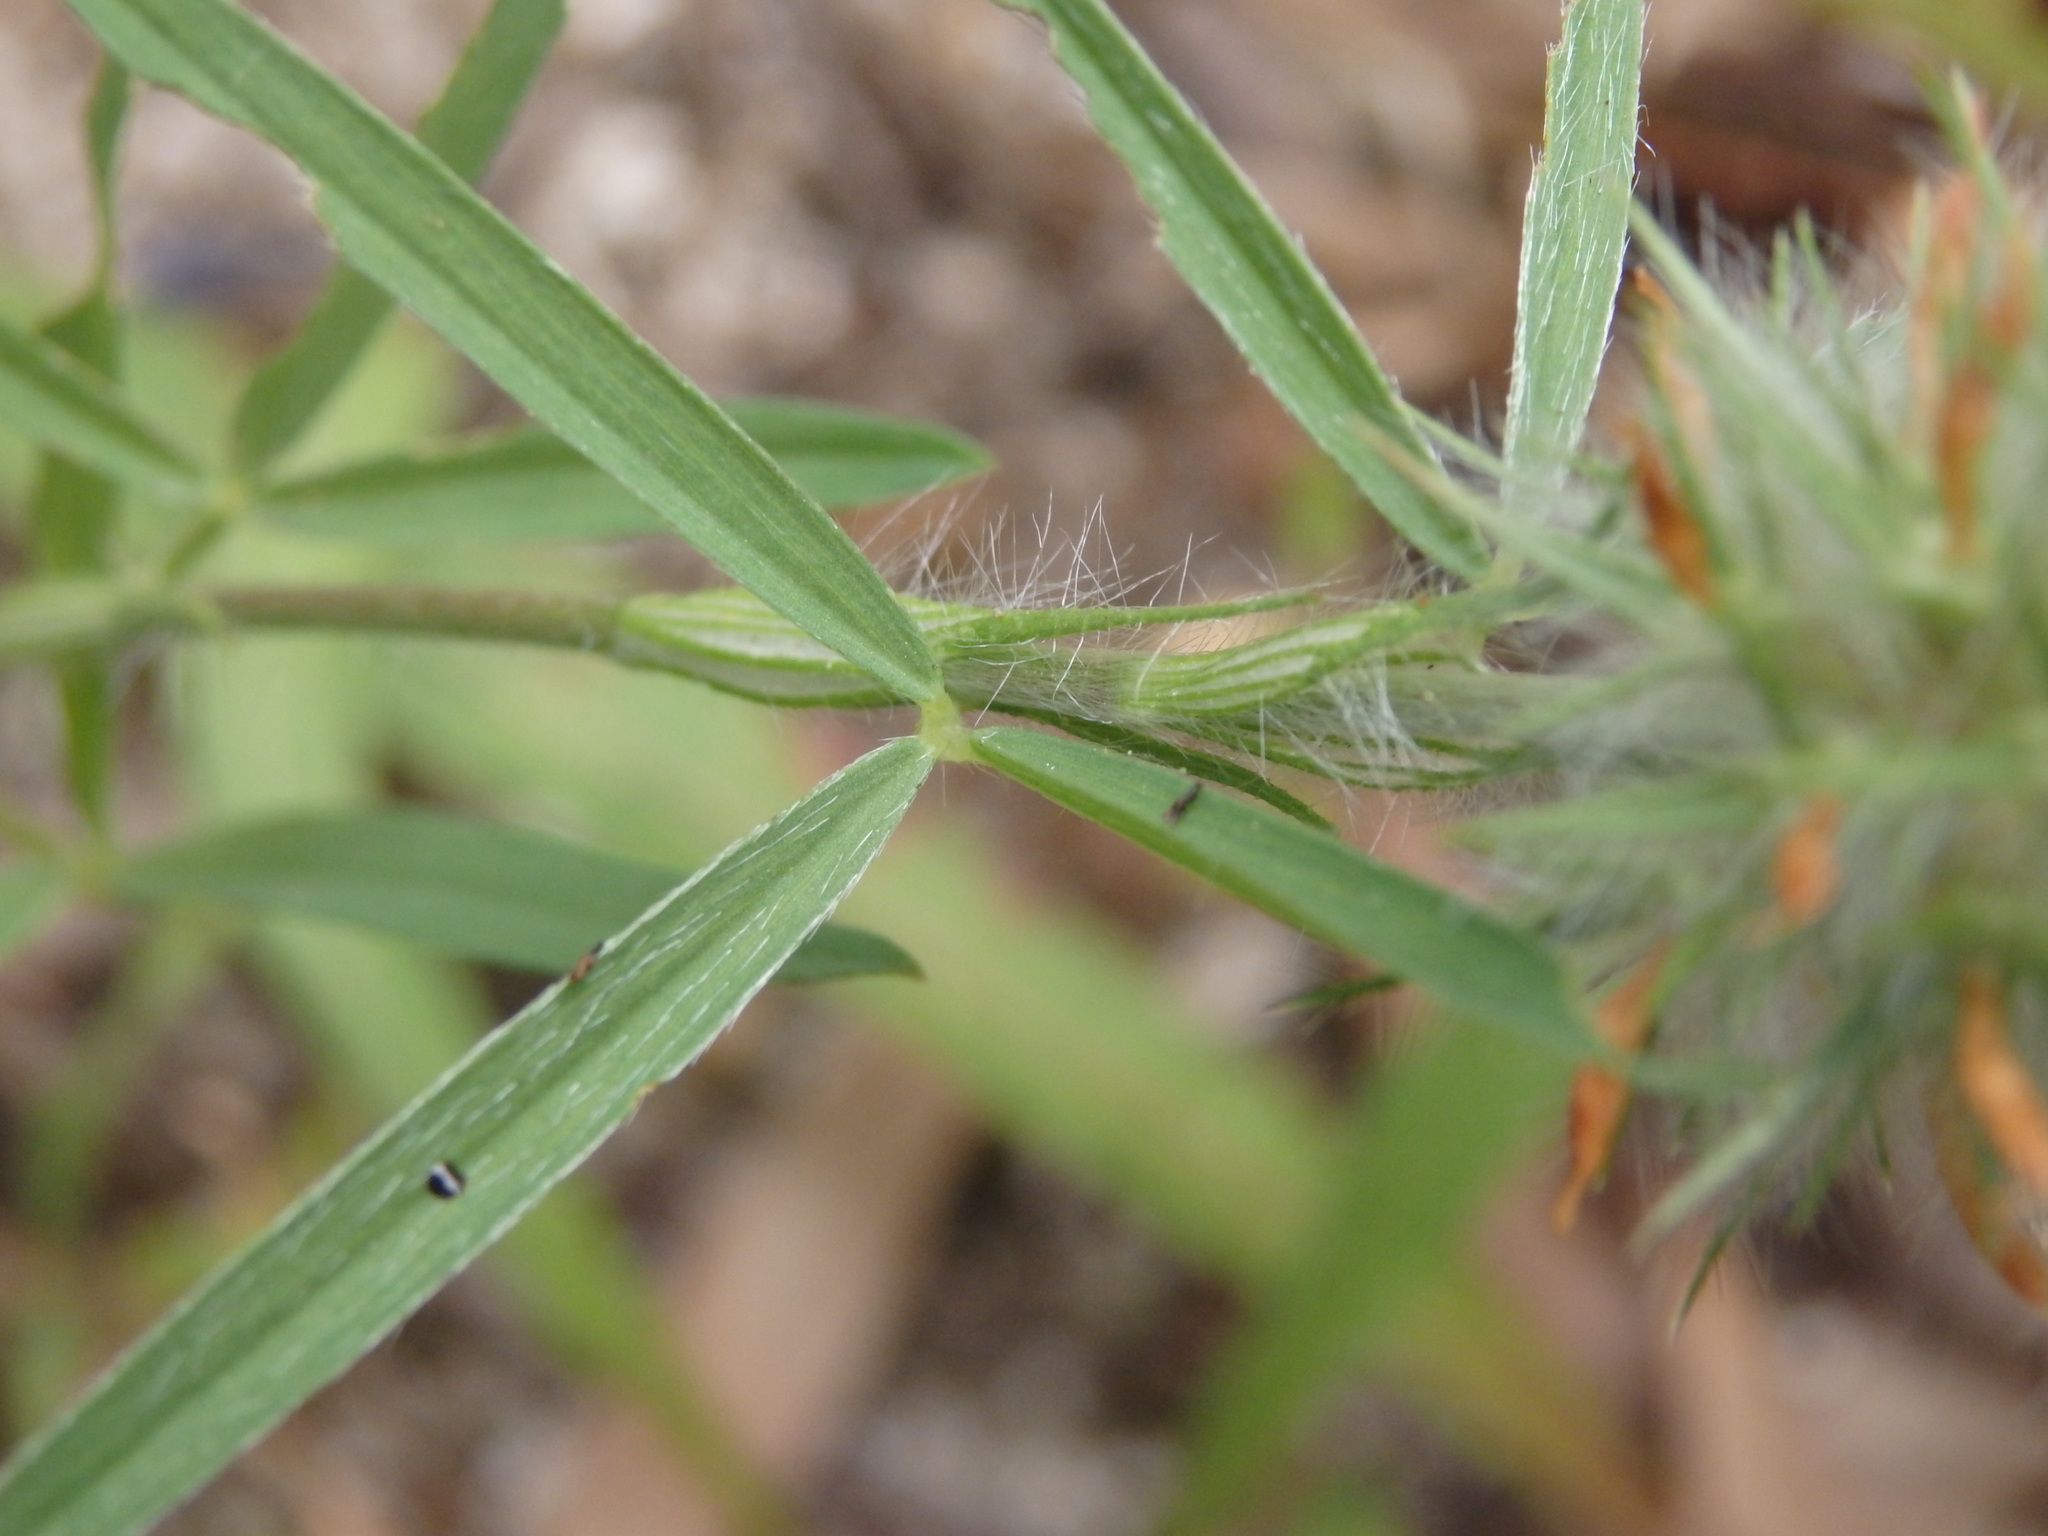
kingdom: Plantae
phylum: Tracheophyta
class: Magnoliopsida
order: Fabales
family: Fabaceae
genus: Trifolium
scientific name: Trifolium angustifolium
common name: Narrow clover
